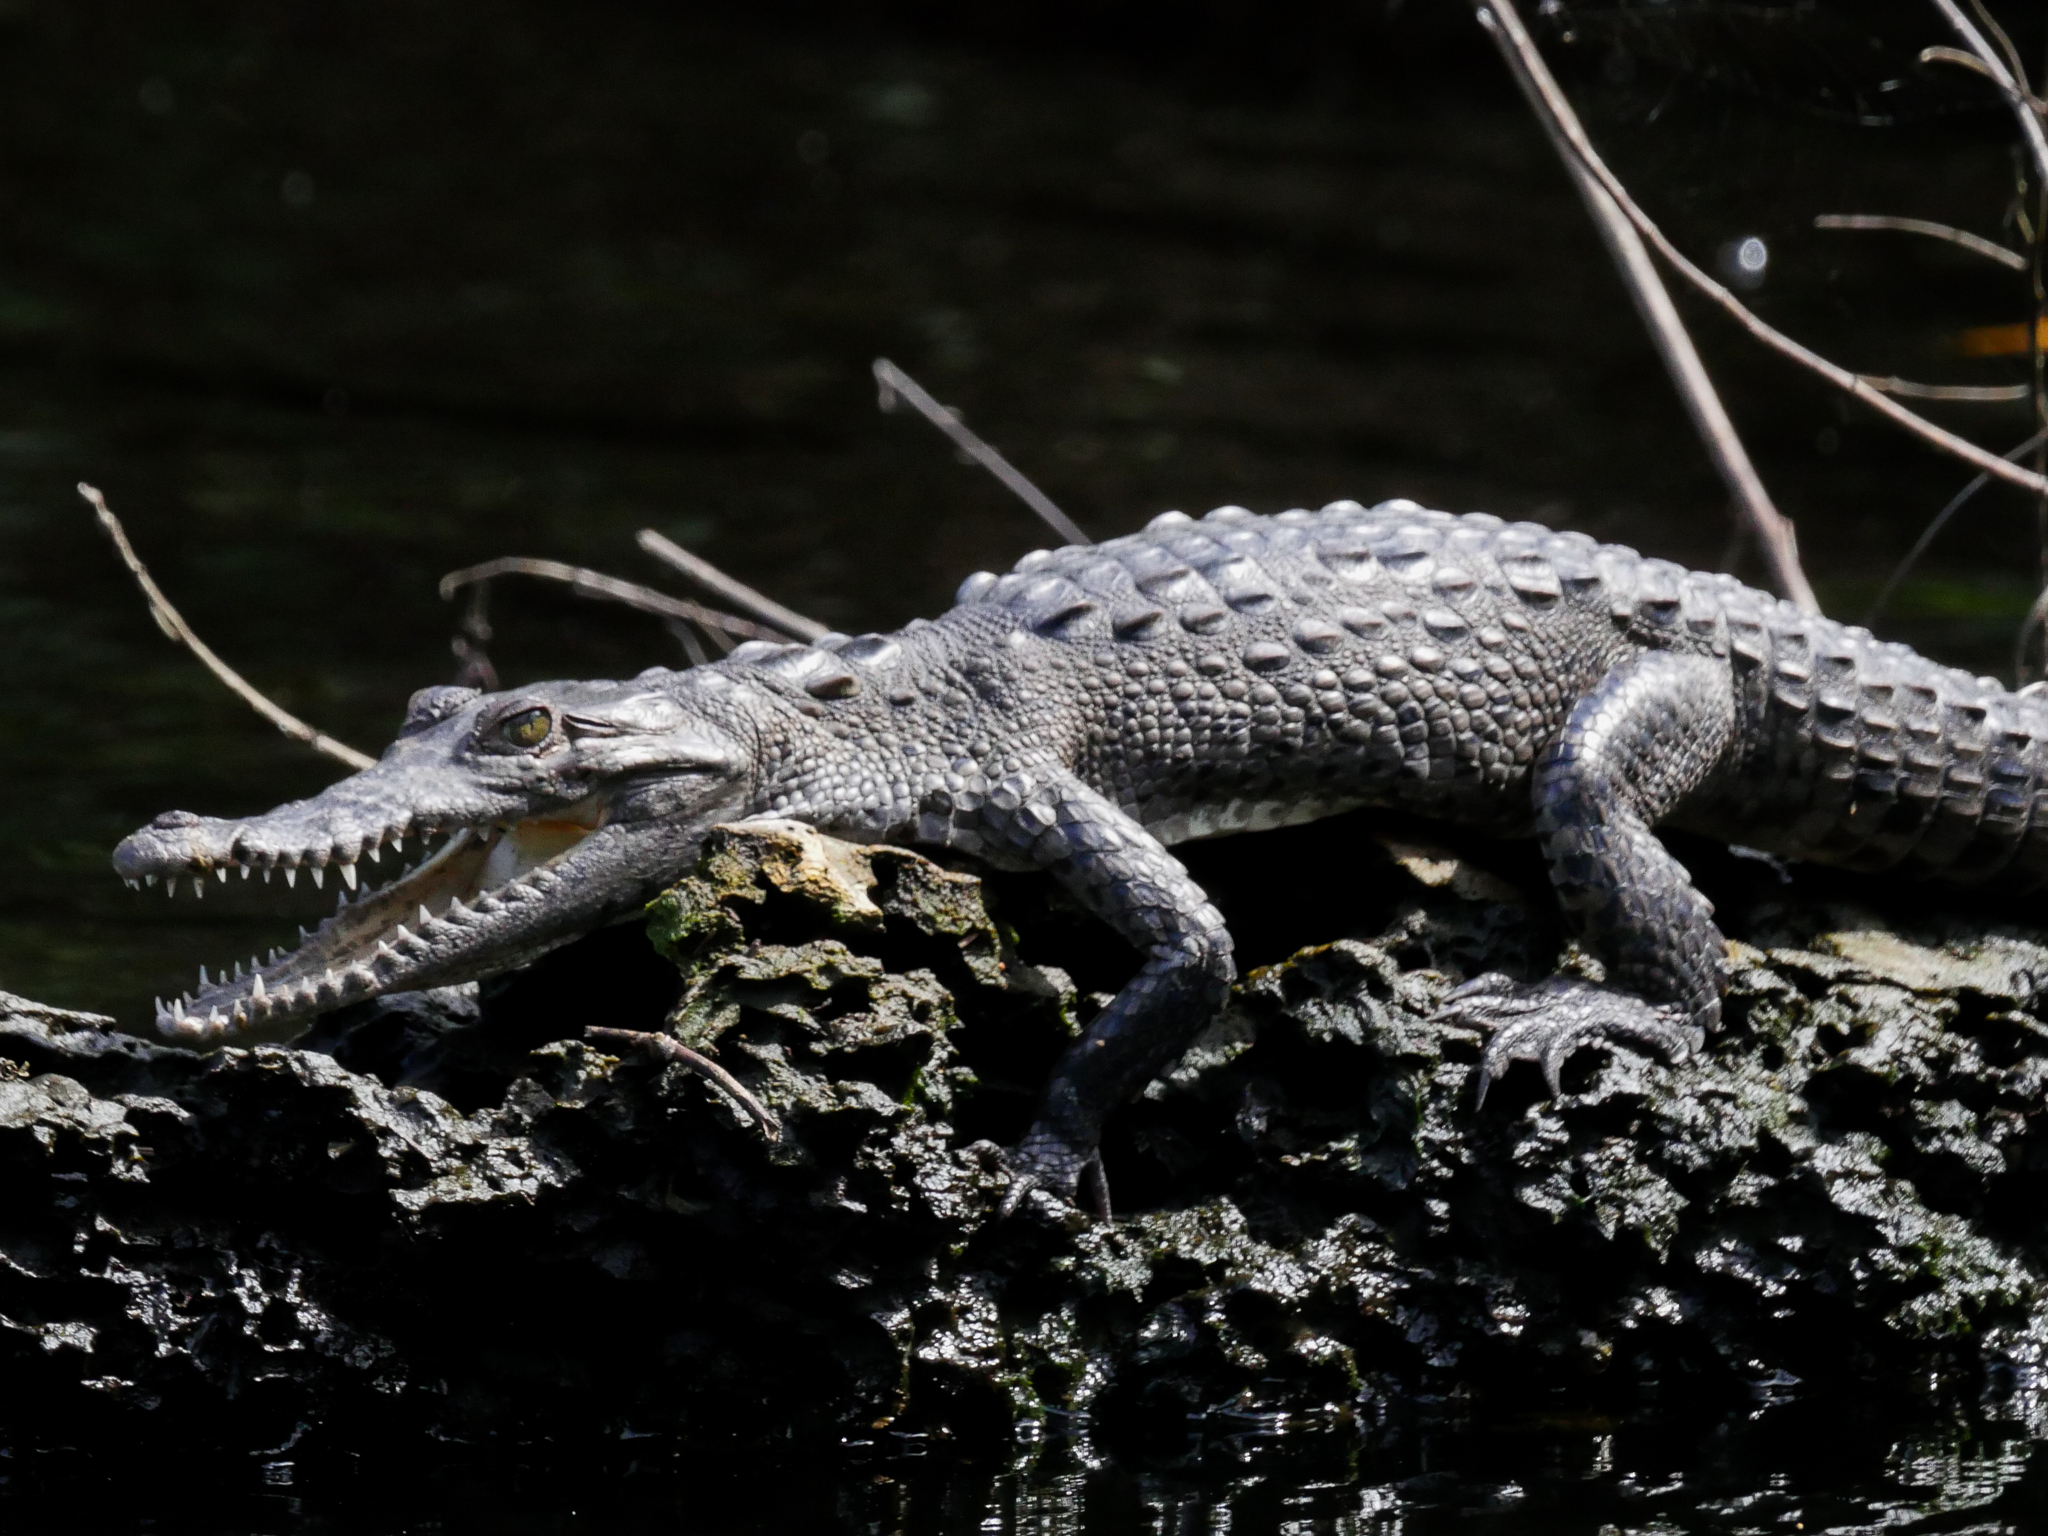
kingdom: Animalia
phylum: Chordata
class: Crocodylia
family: Crocodylidae
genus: Crocodylus
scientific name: Crocodylus acutus
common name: American crocodile
